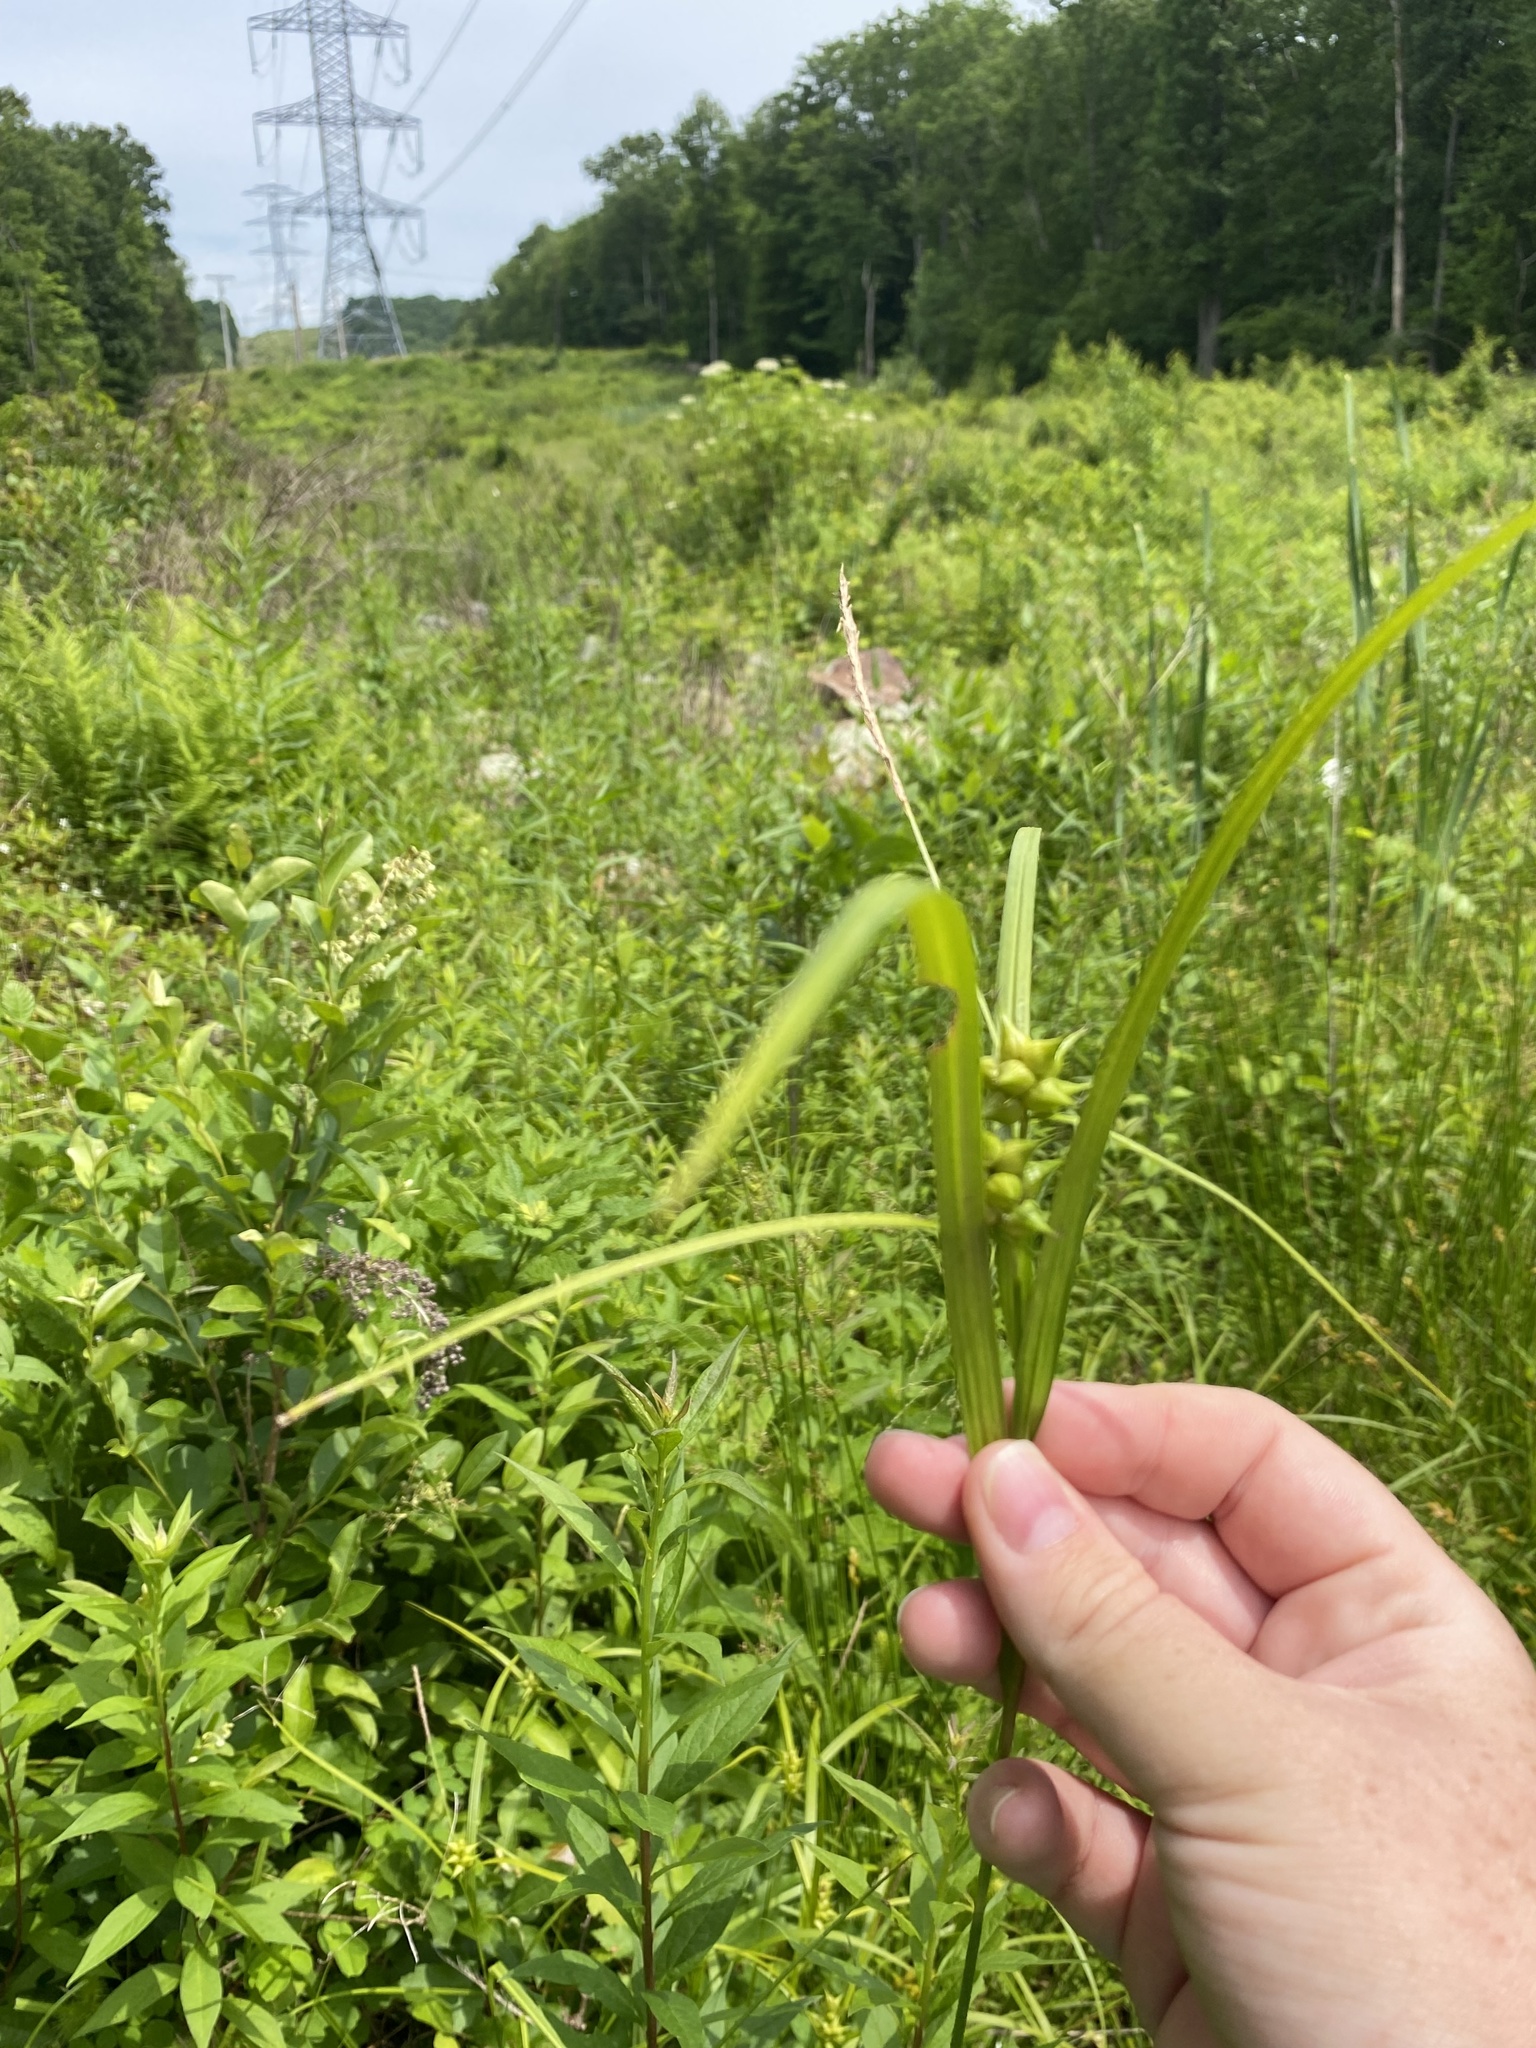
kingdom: Plantae
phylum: Tracheophyta
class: Liliopsida
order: Poales
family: Cyperaceae
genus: Carex
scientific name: Carex intumescens
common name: Greater bladder sedge
